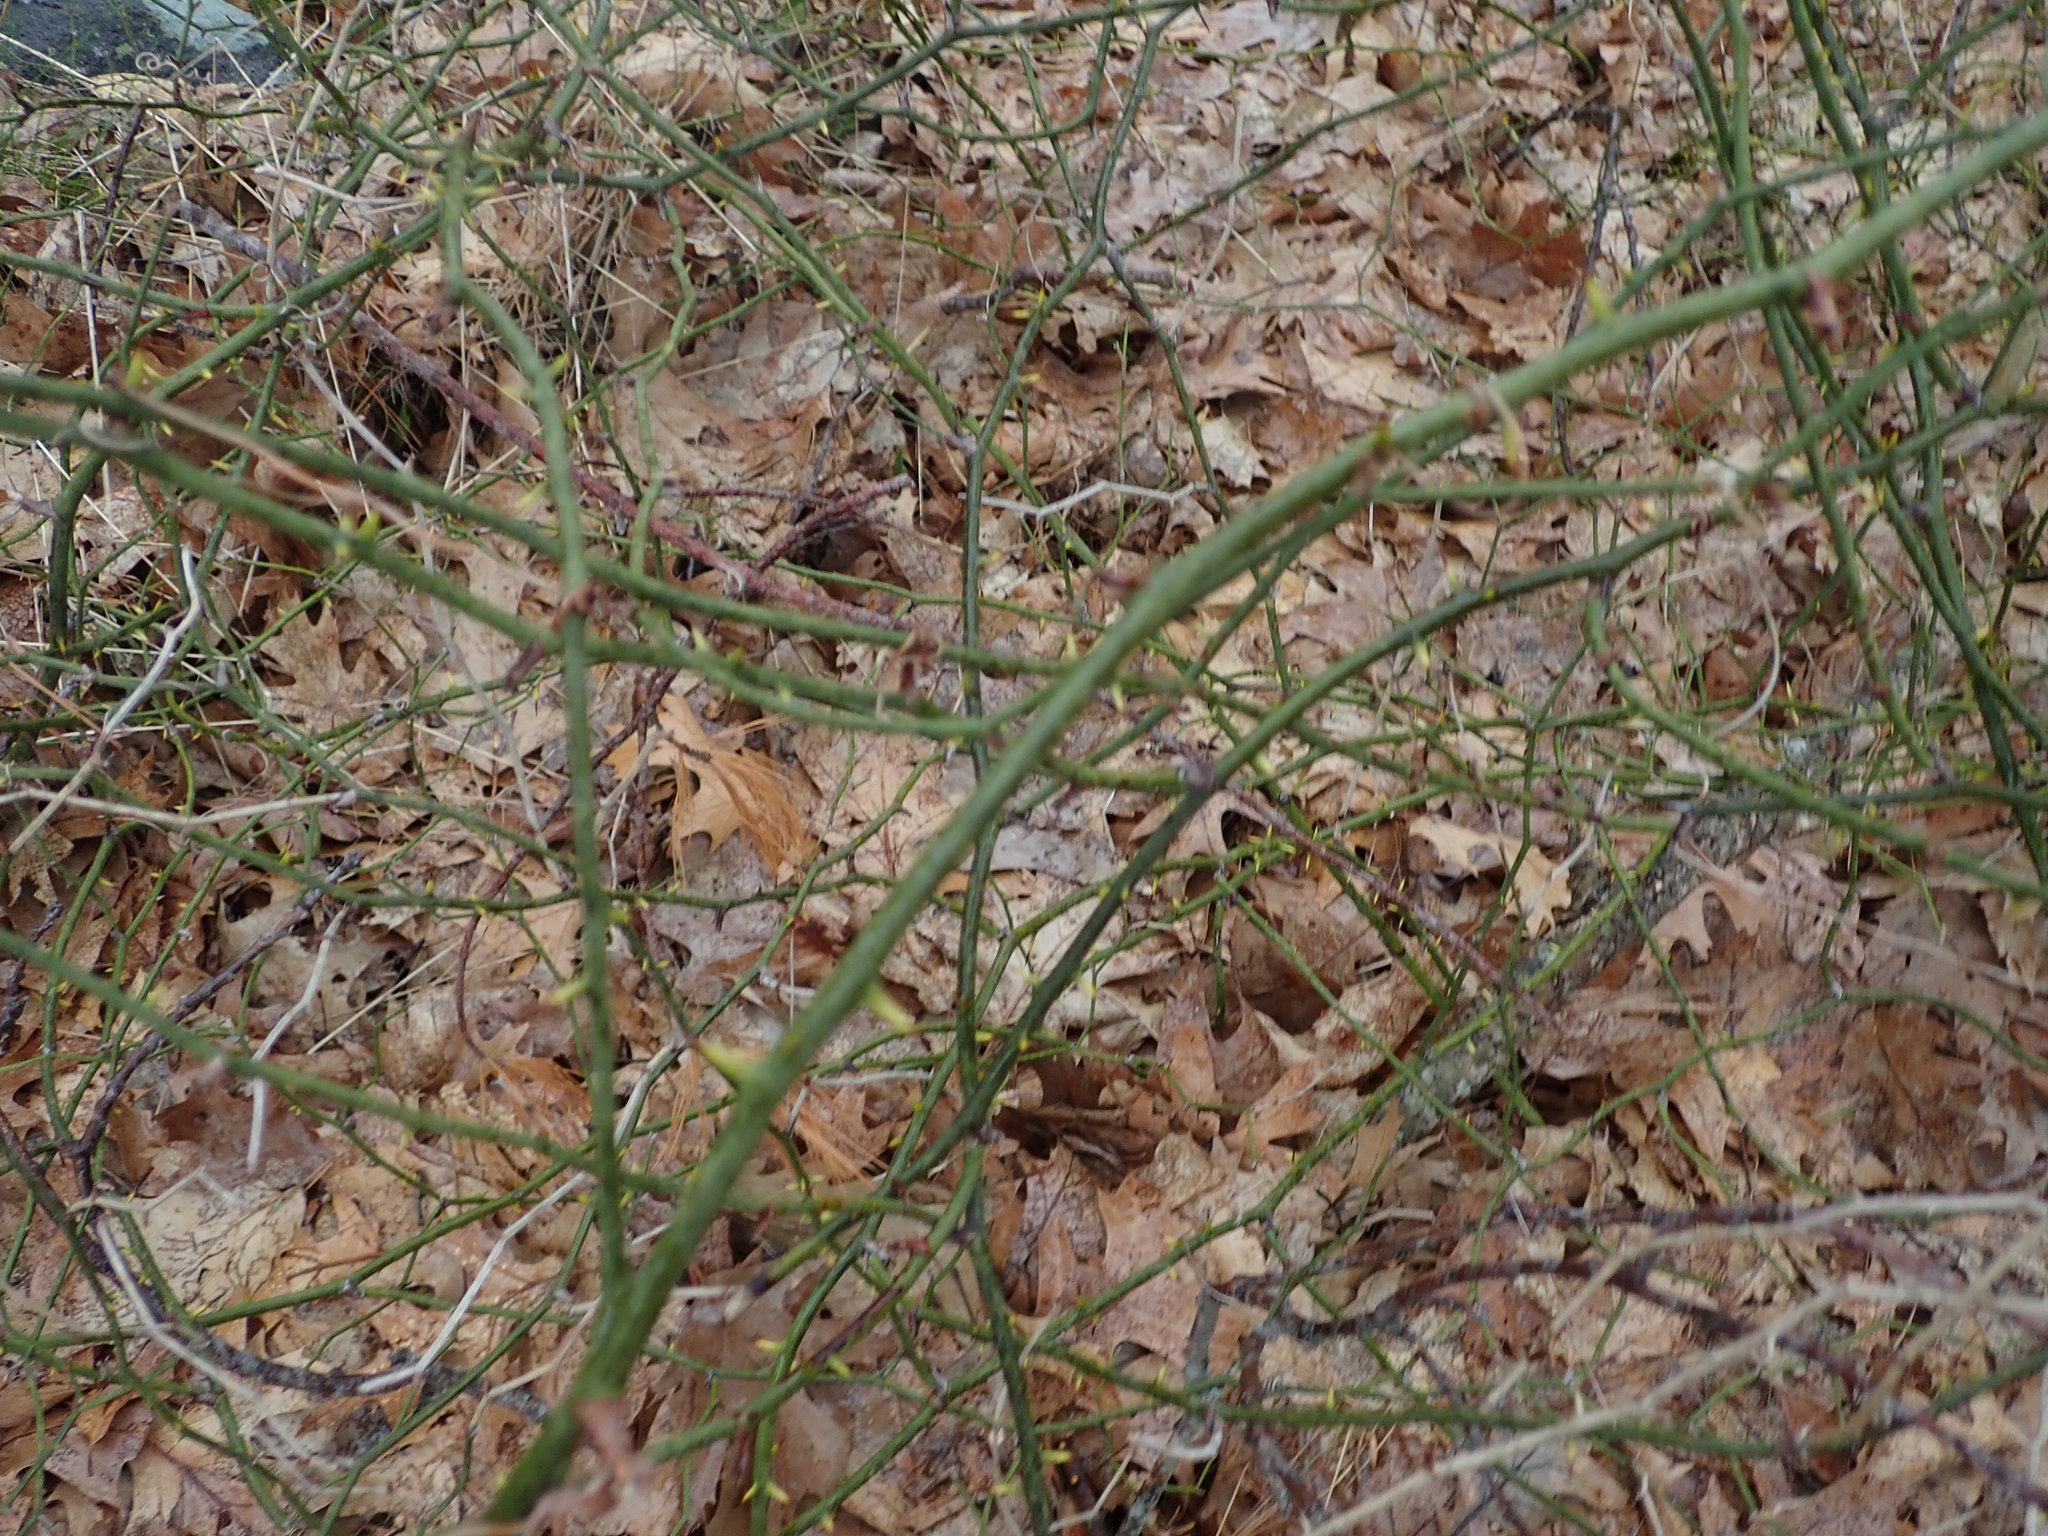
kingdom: Plantae
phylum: Tracheophyta
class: Liliopsida
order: Liliales
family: Smilacaceae
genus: Smilax
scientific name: Smilax rotundifolia
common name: Bullbriar
